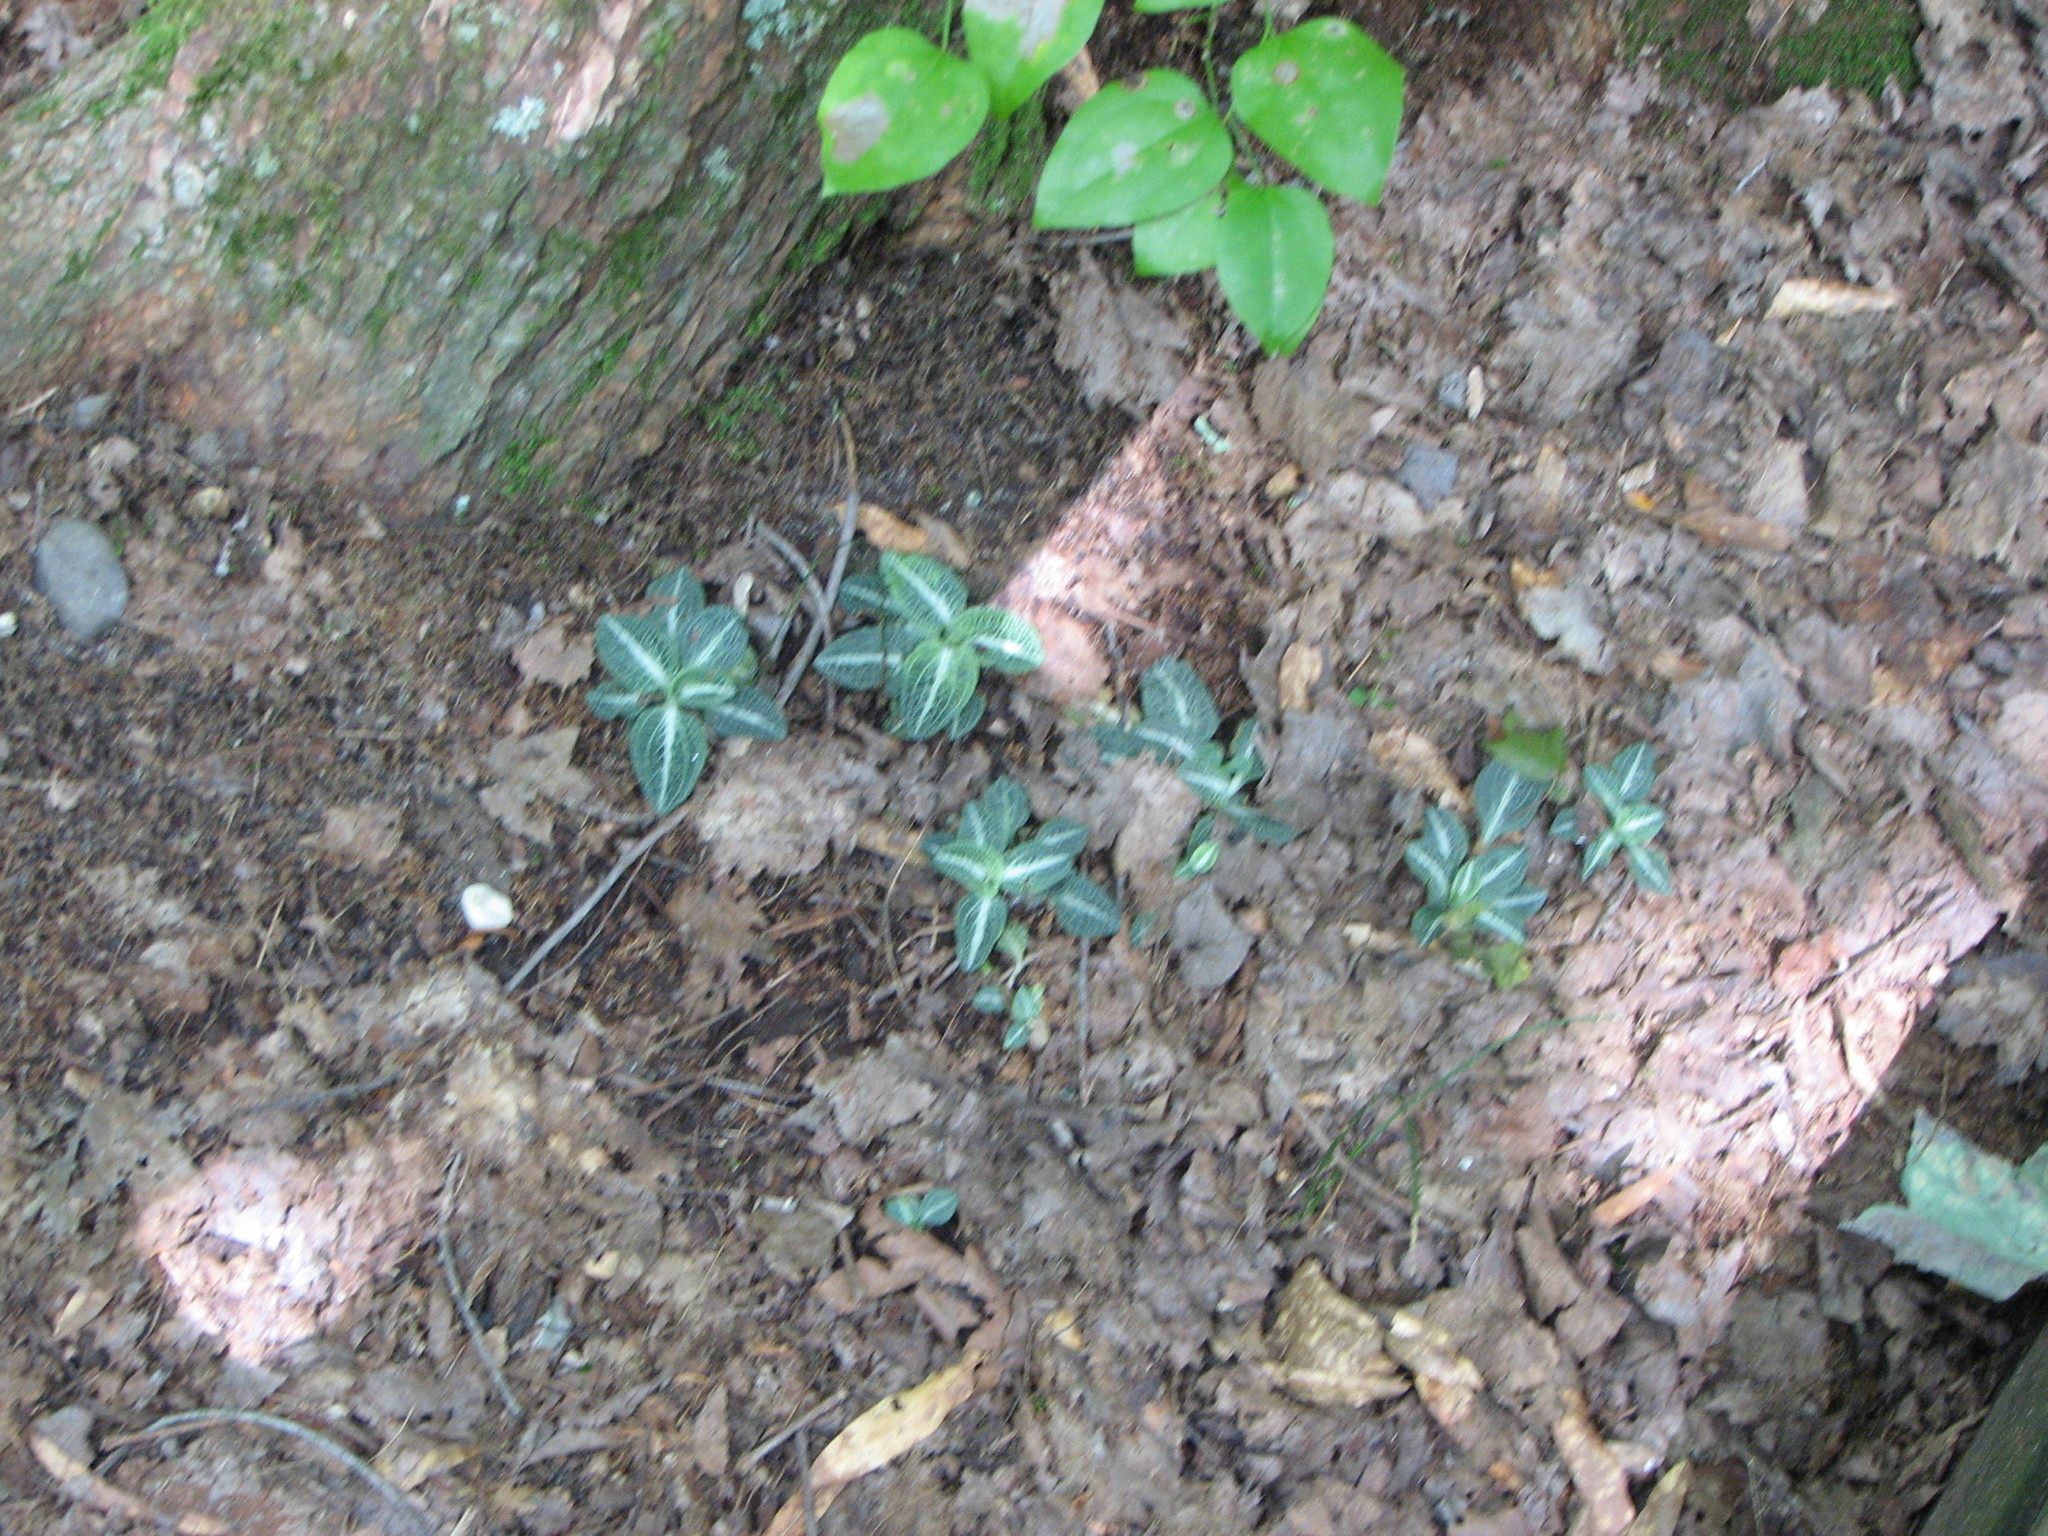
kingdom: Plantae
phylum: Tracheophyta
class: Liliopsida
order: Asparagales
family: Orchidaceae
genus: Goodyera
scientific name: Goodyera pubescens
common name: Downy rattlesnake-plantain
